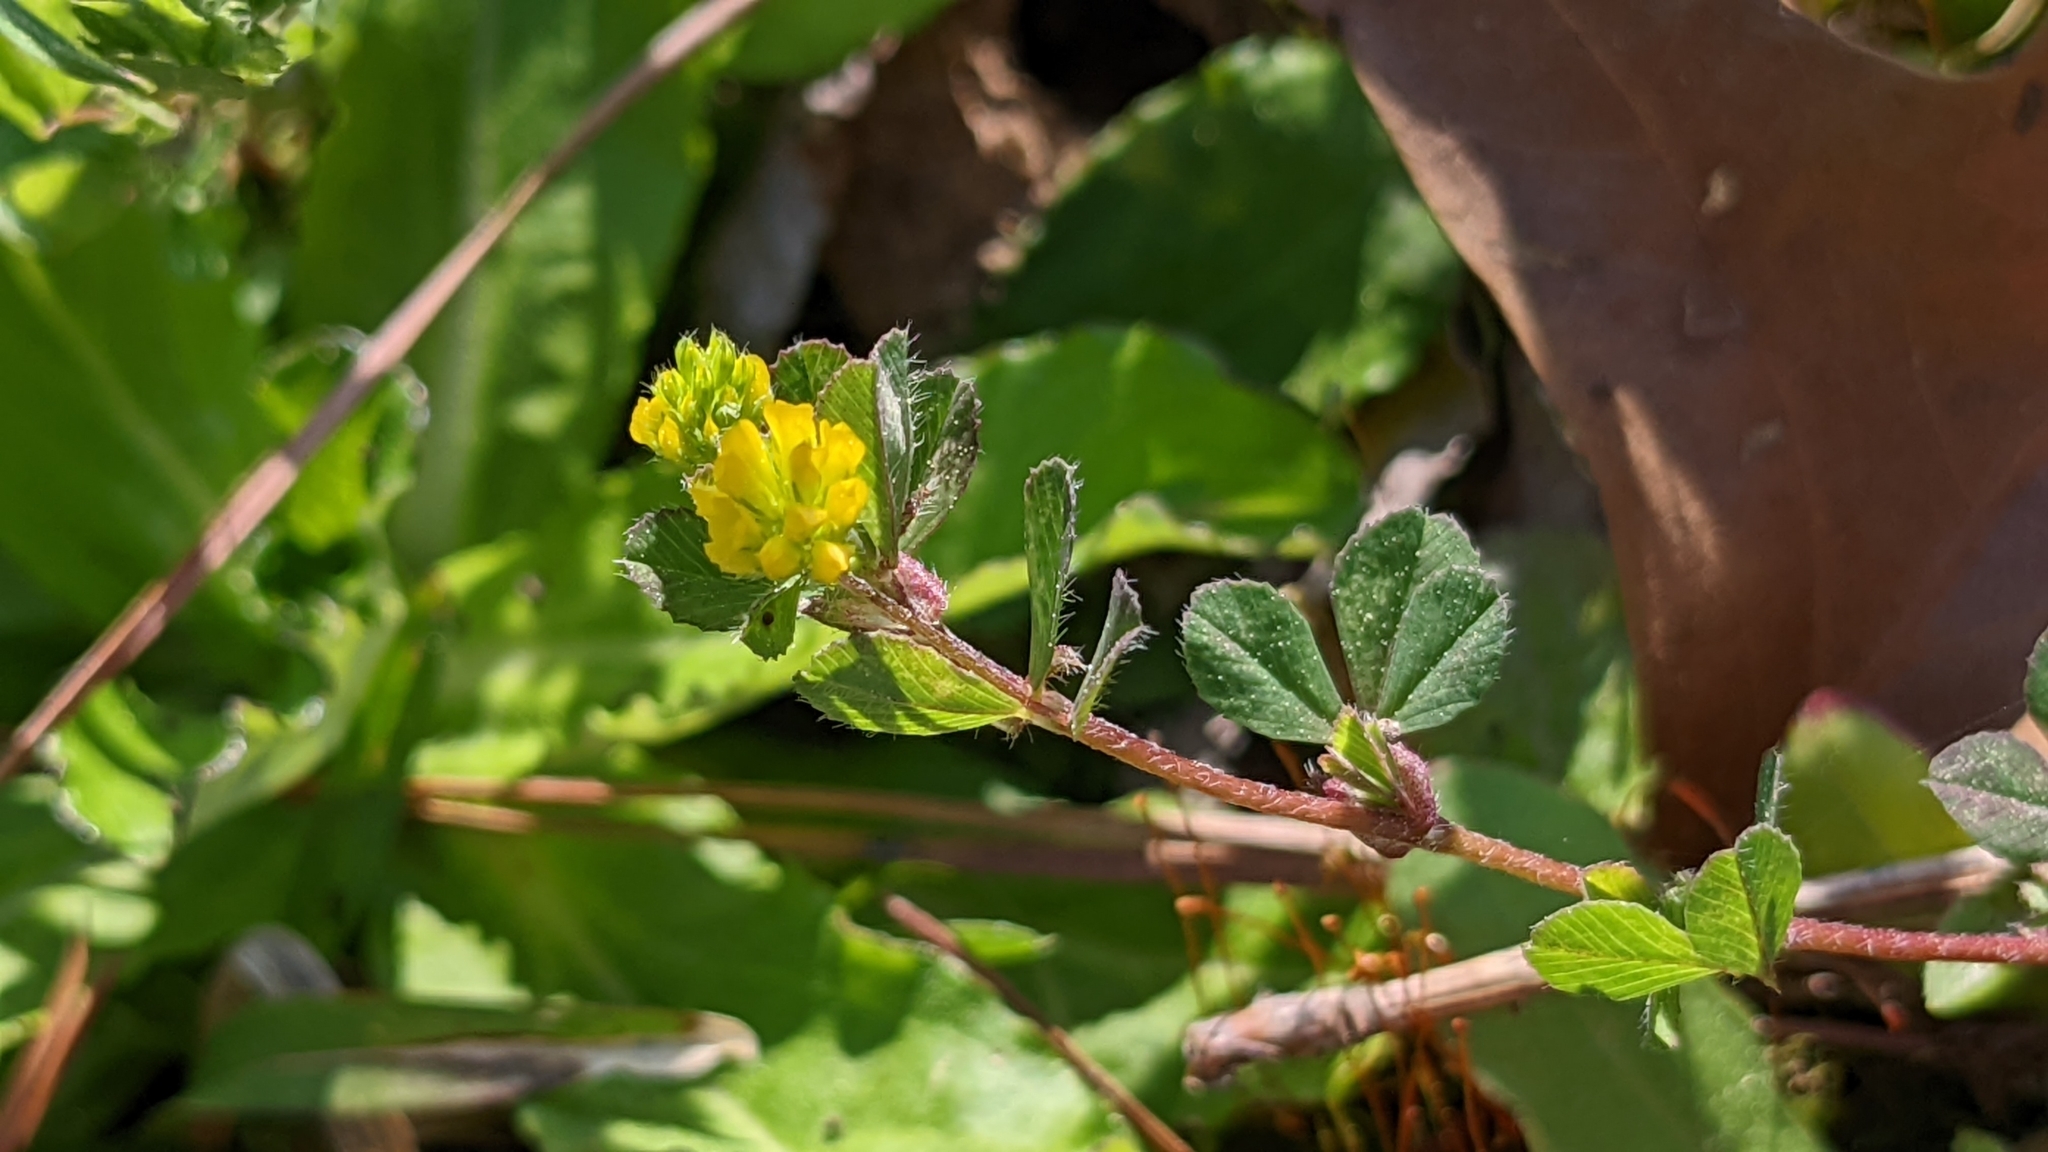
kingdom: Plantae
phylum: Tracheophyta
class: Magnoliopsida
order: Fabales
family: Fabaceae
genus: Trifolium
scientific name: Trifolium dubium
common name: Suckling clover
